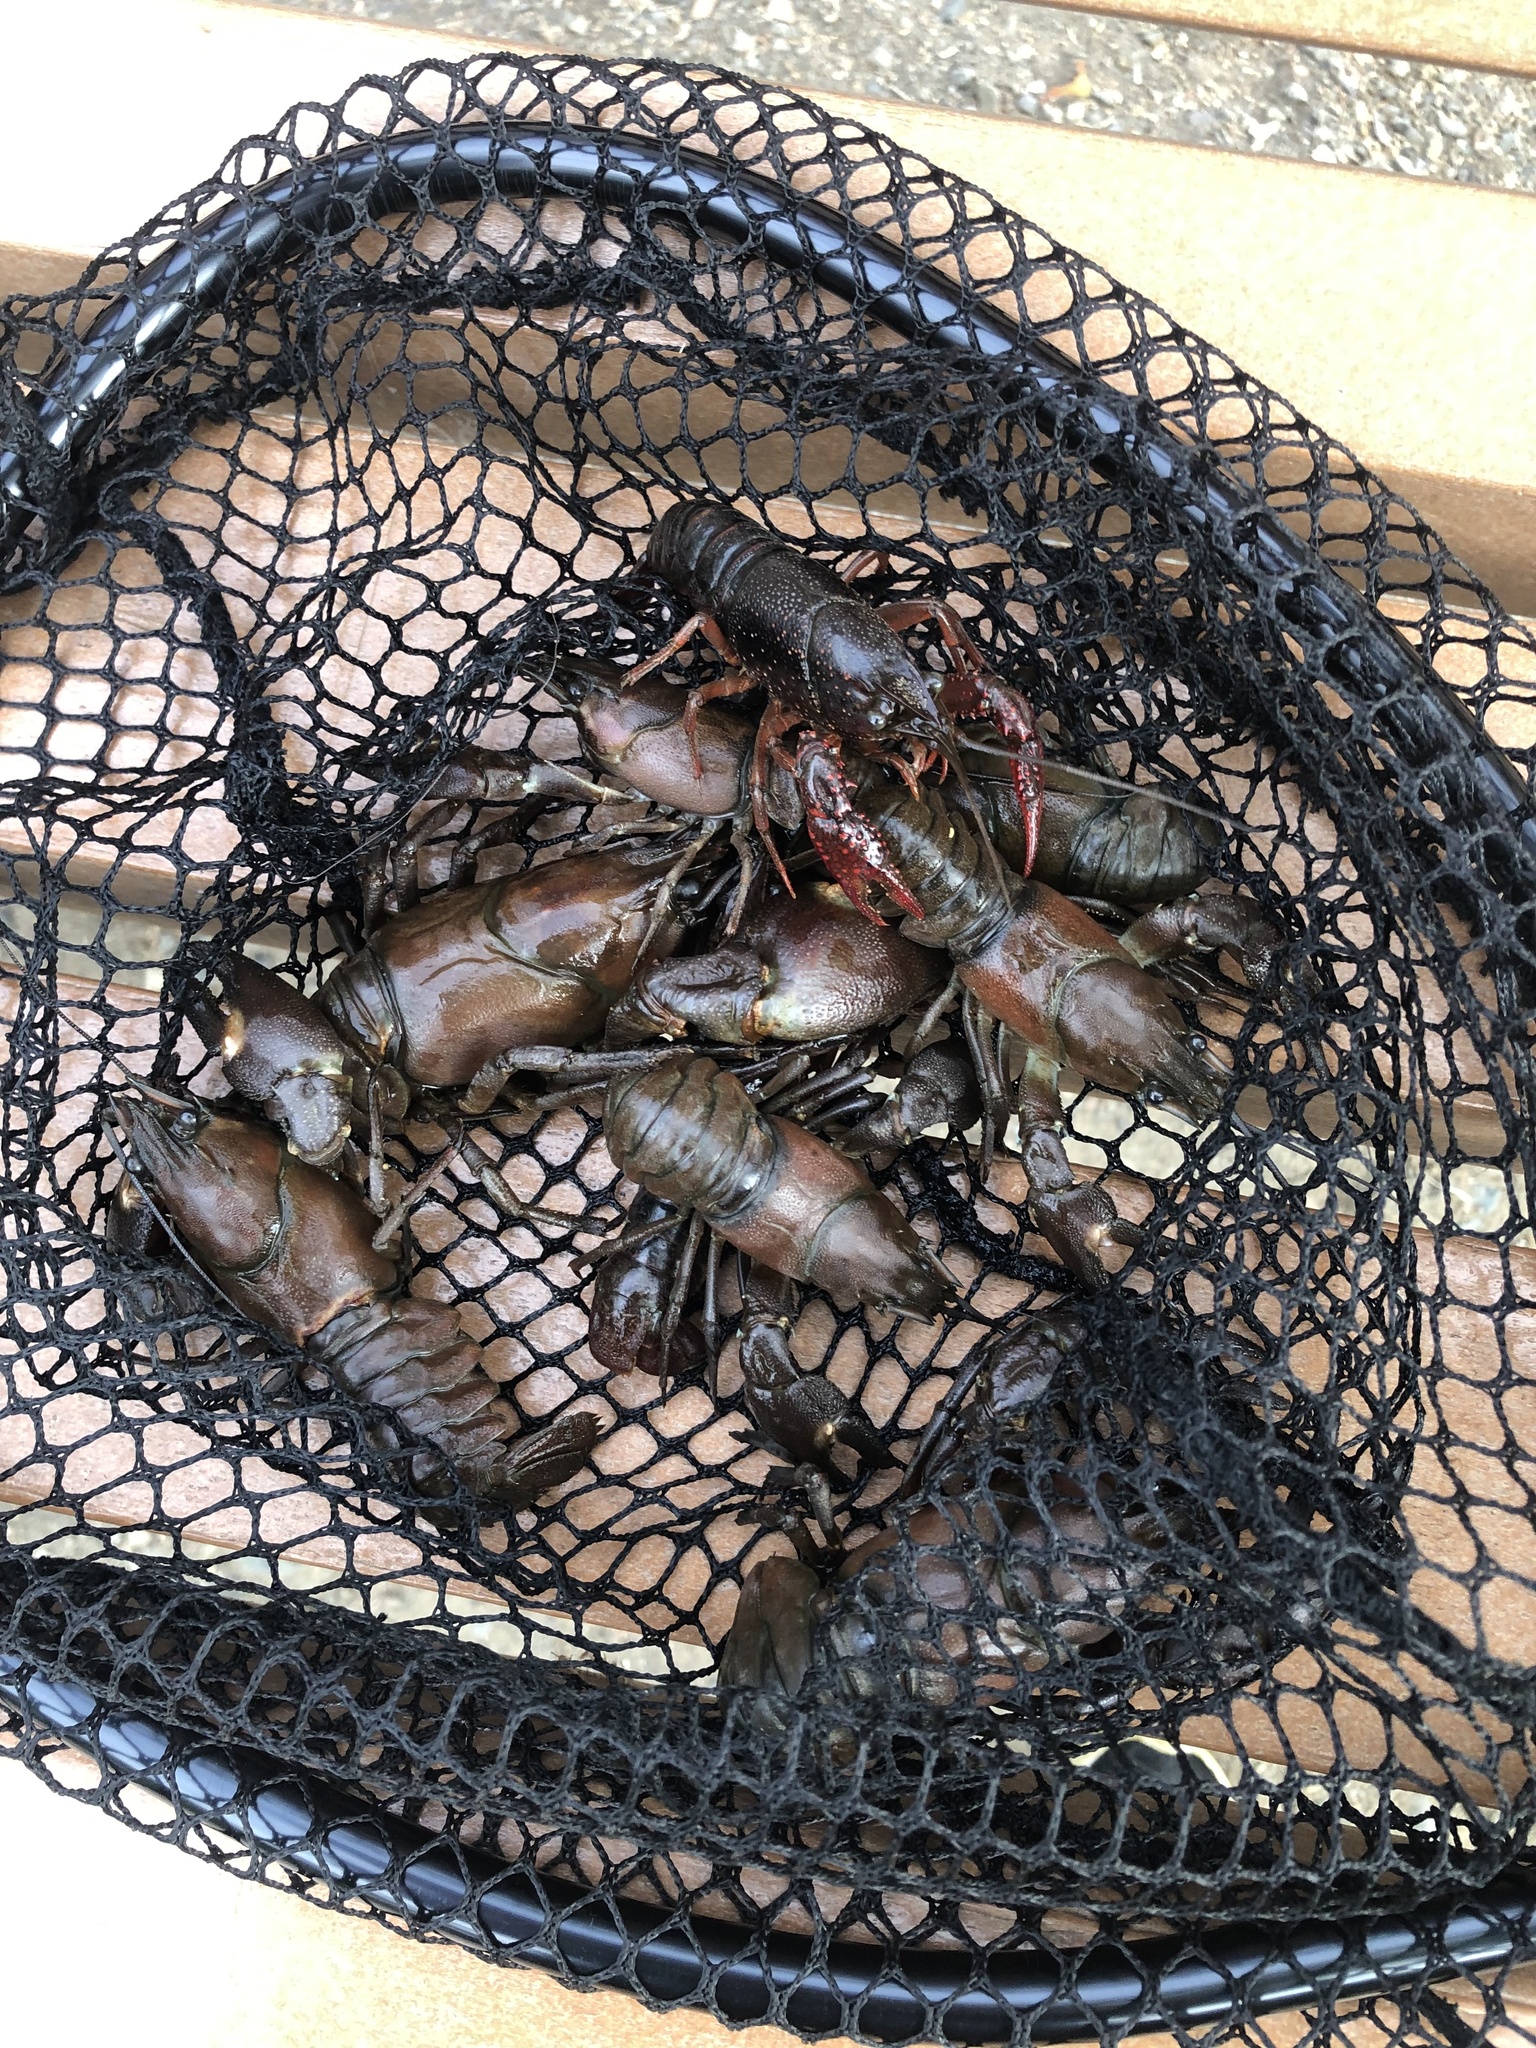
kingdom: Animalia
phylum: Arthropoda
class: Malacostraca
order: Decapoda
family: Astacidae
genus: Pacifastacus
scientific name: Pacifastacus leniusculus
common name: Signal crayfish
